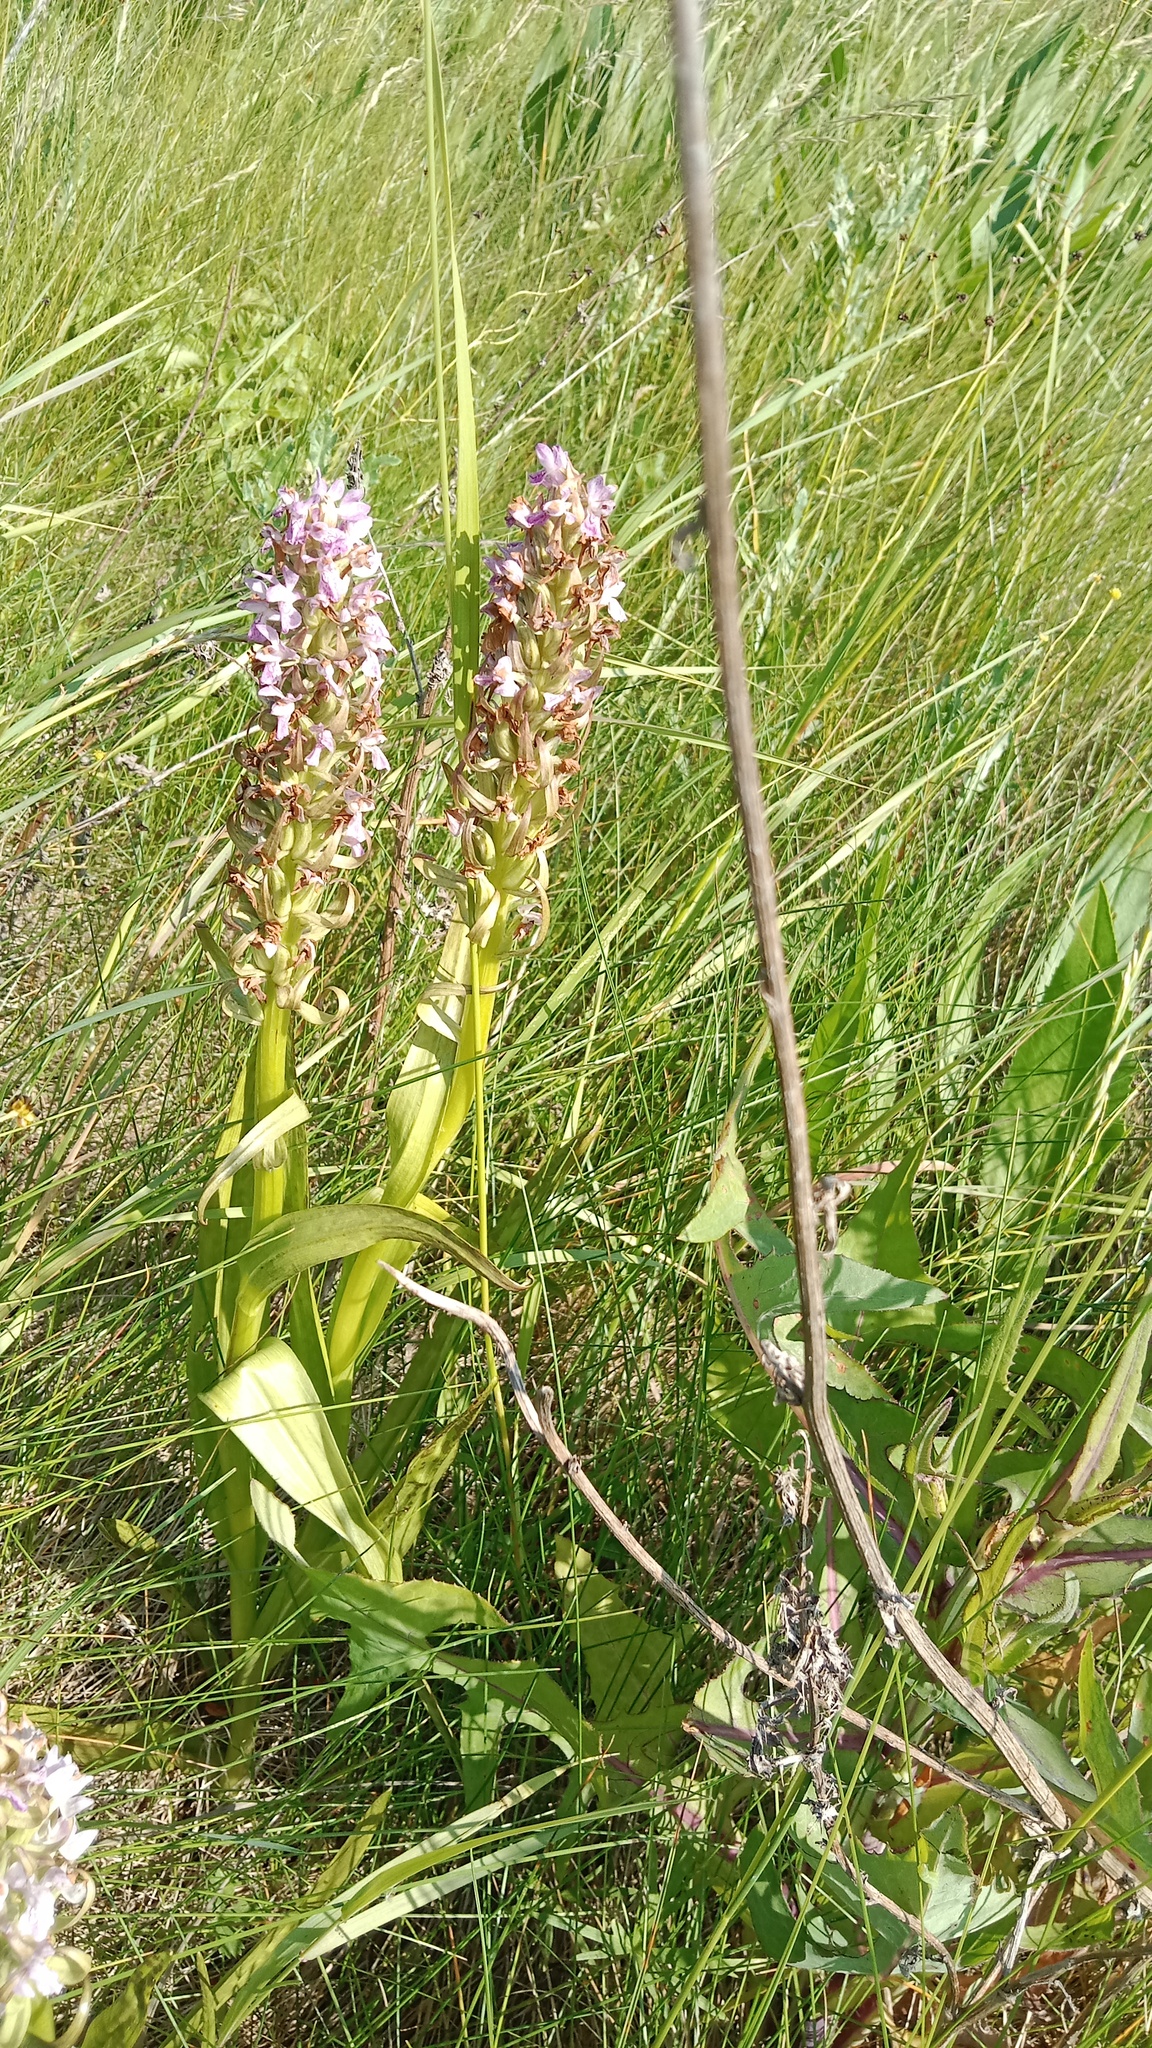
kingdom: Plantae
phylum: Tracheophyta
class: Liliopsida
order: Asparagales
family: Orchidaceae
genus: Dactylorhiza
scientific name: Dactylorhiza incarnata
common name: Early marsh-orchid
